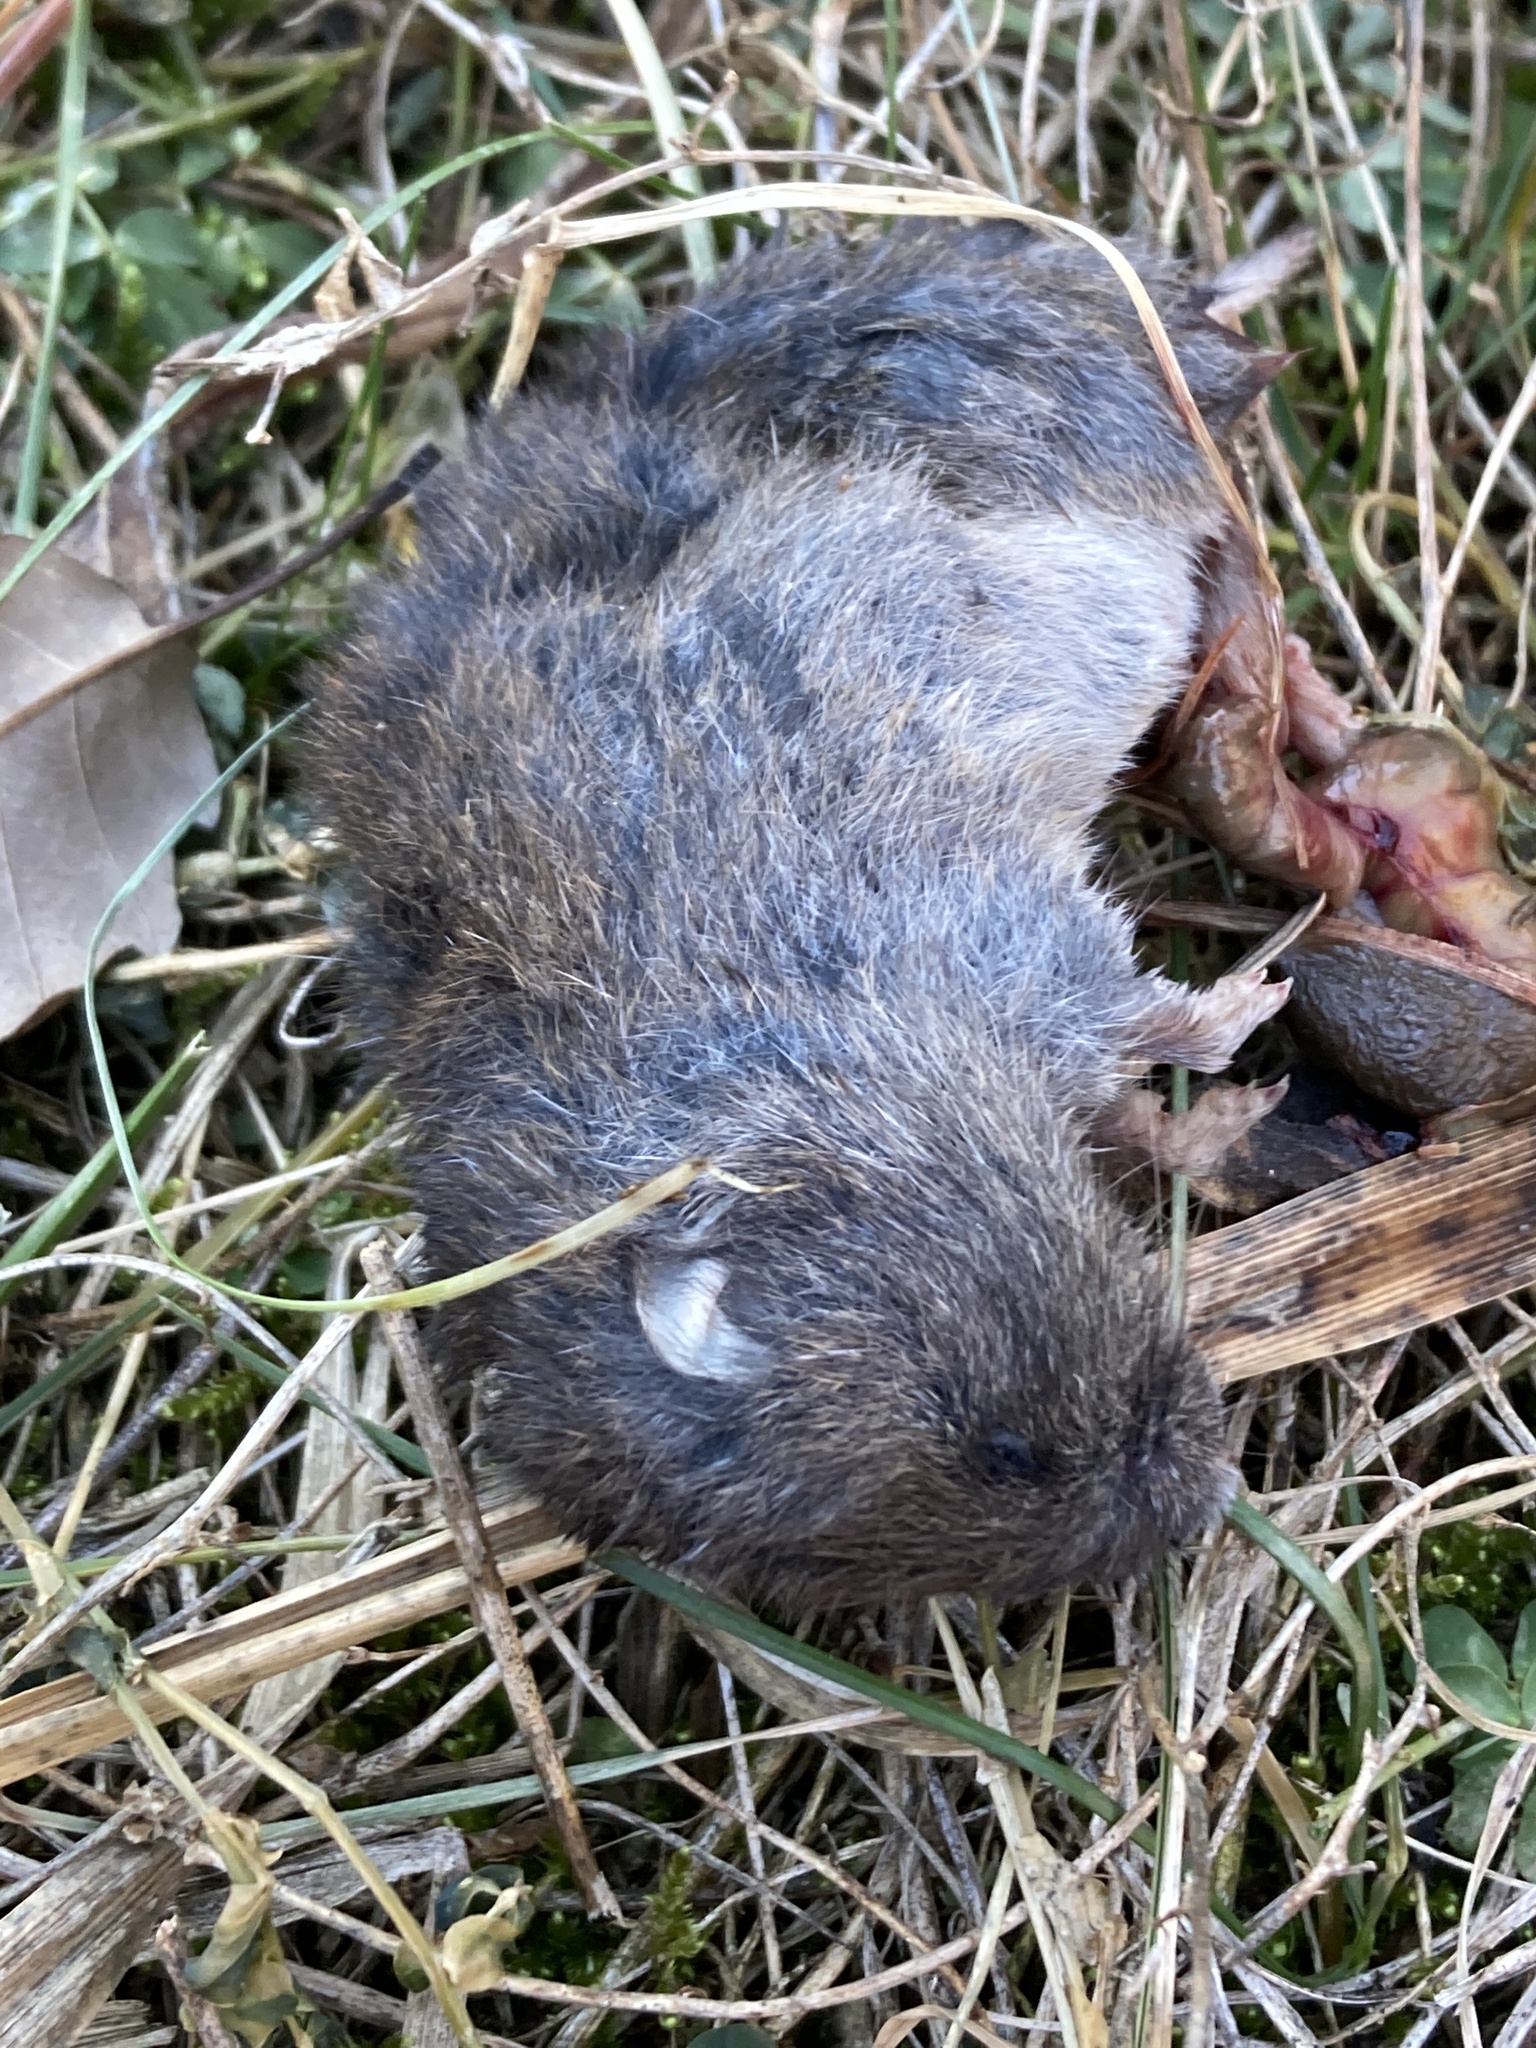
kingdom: Animalia
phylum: Chordata
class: Mammalia
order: Rodentia
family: Cricetidae
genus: Microtus
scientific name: Microtus pennsylvanicus
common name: Meadow vole
